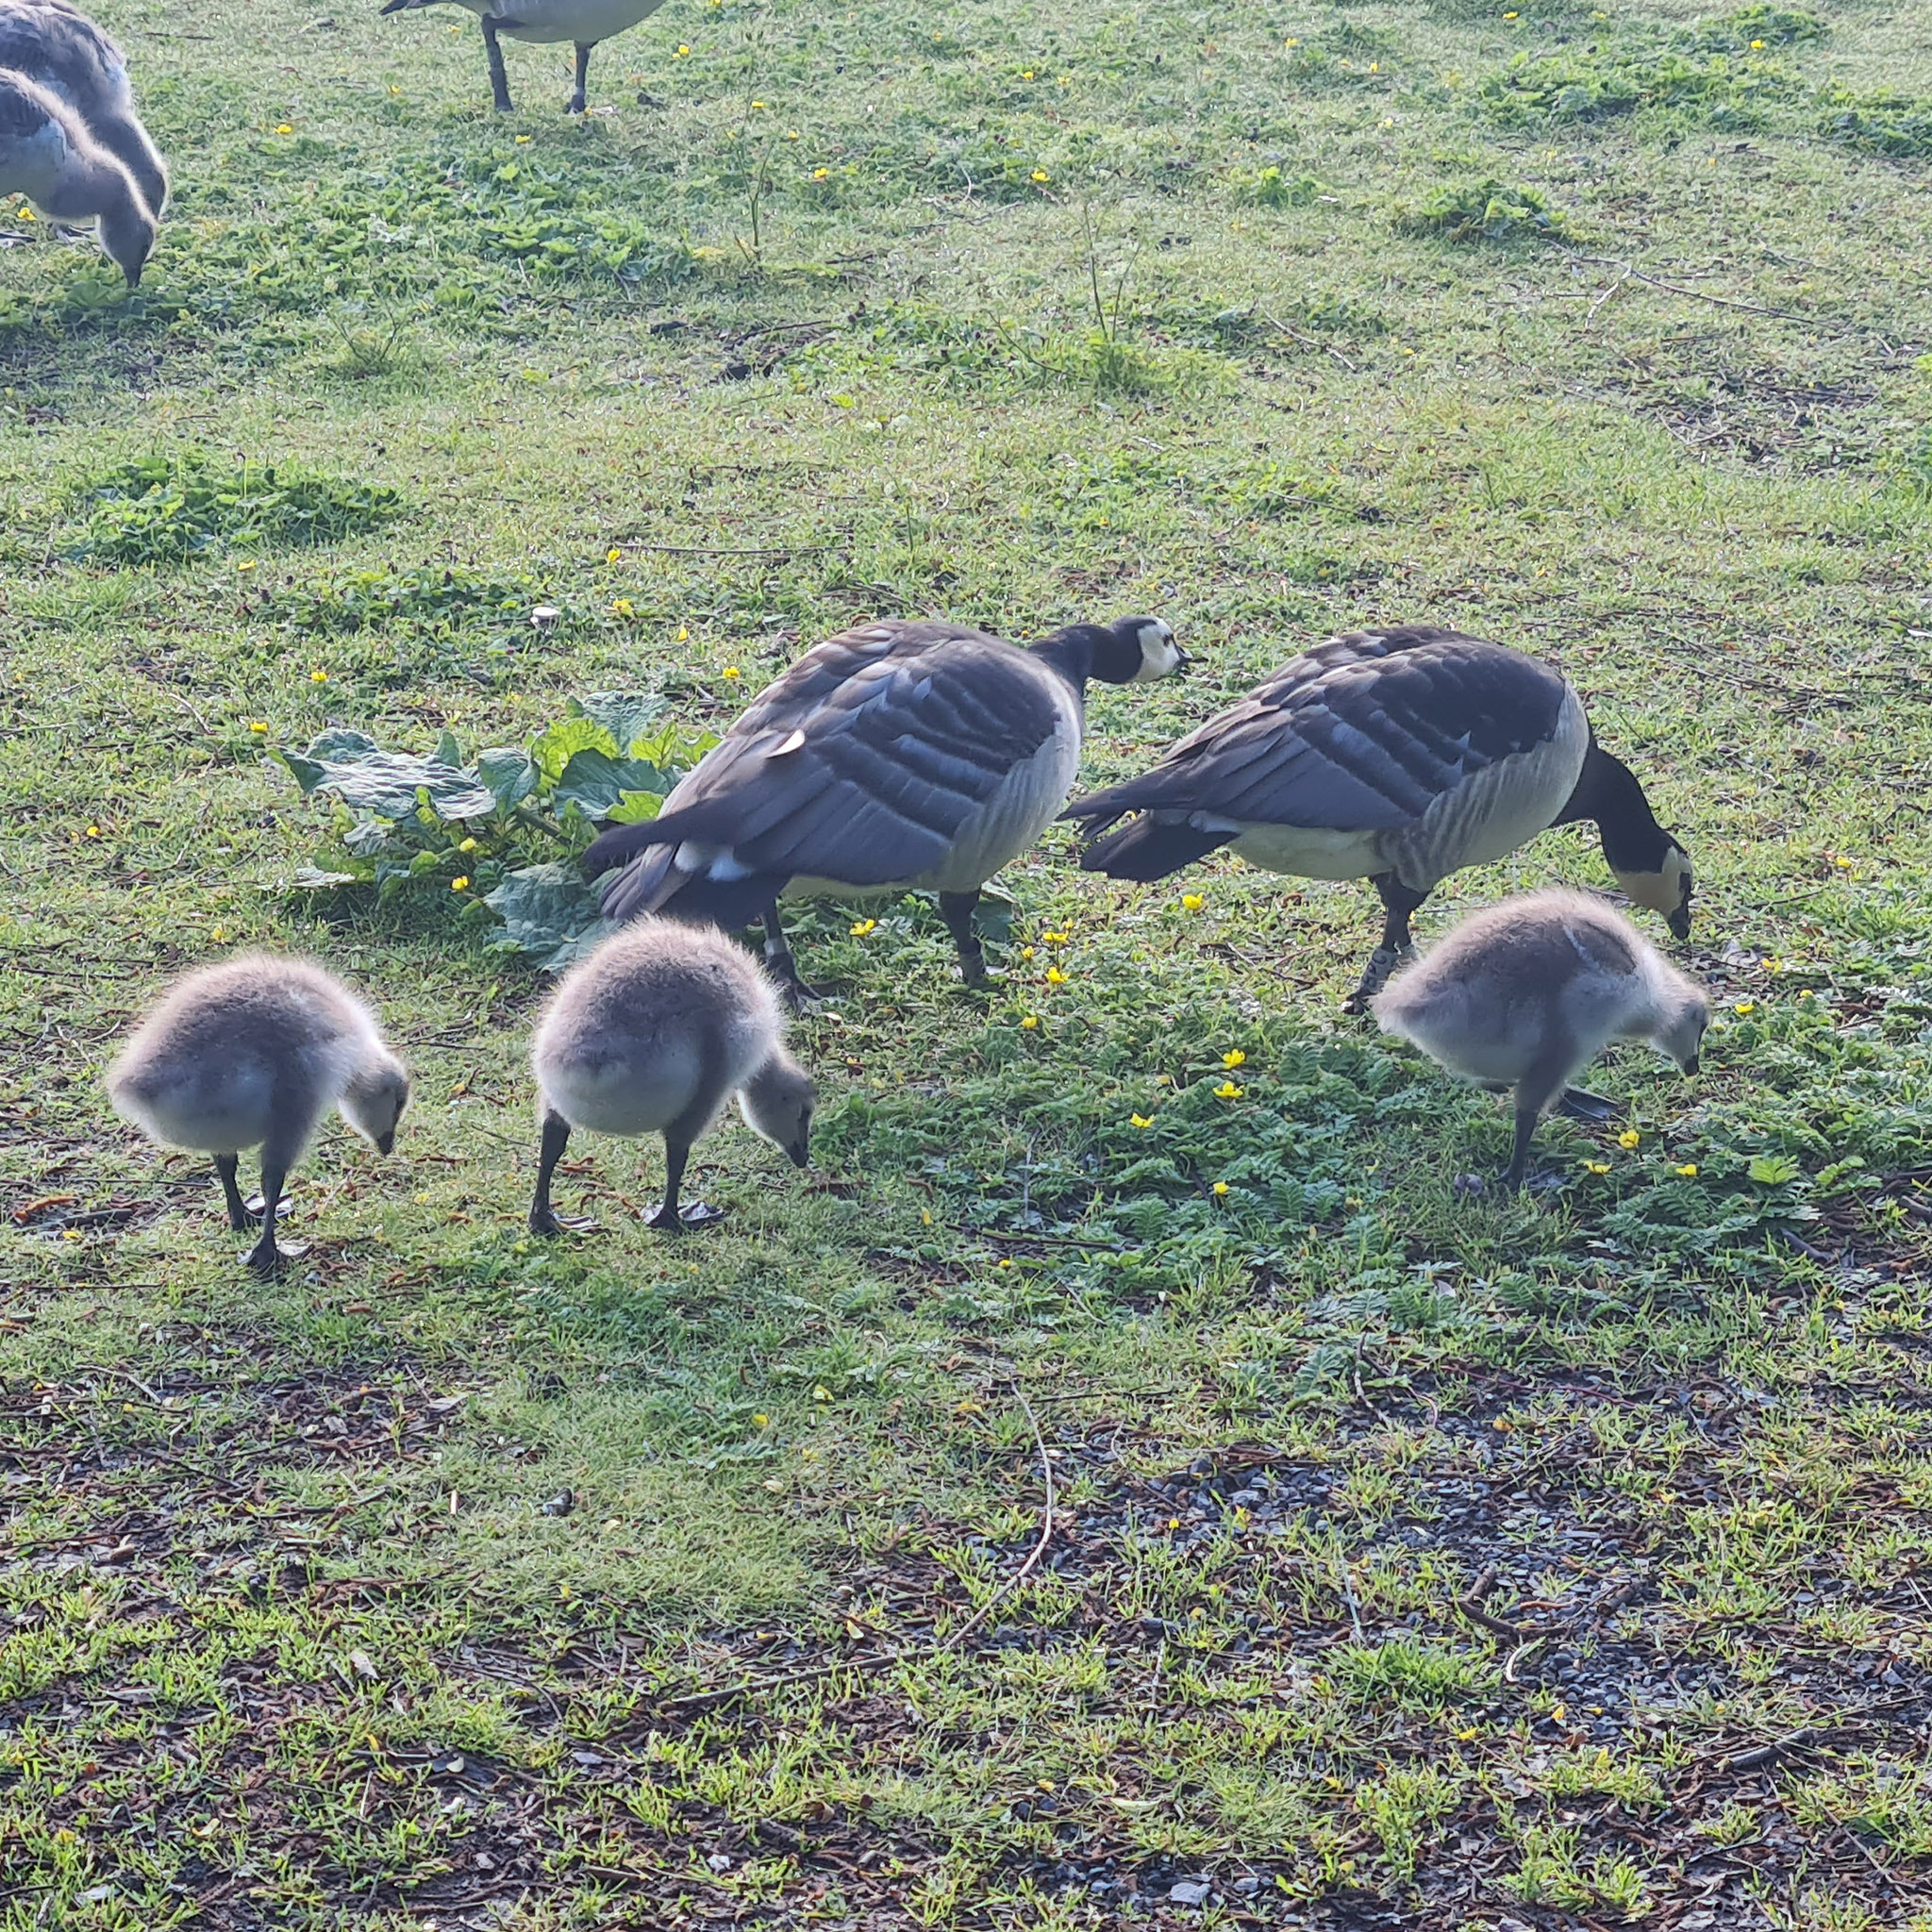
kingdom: Animalia
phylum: Chordata
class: Aves
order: Anseriformes
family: Anatidae
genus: Branta
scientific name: Branta leucopsis
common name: Barnacle goose
